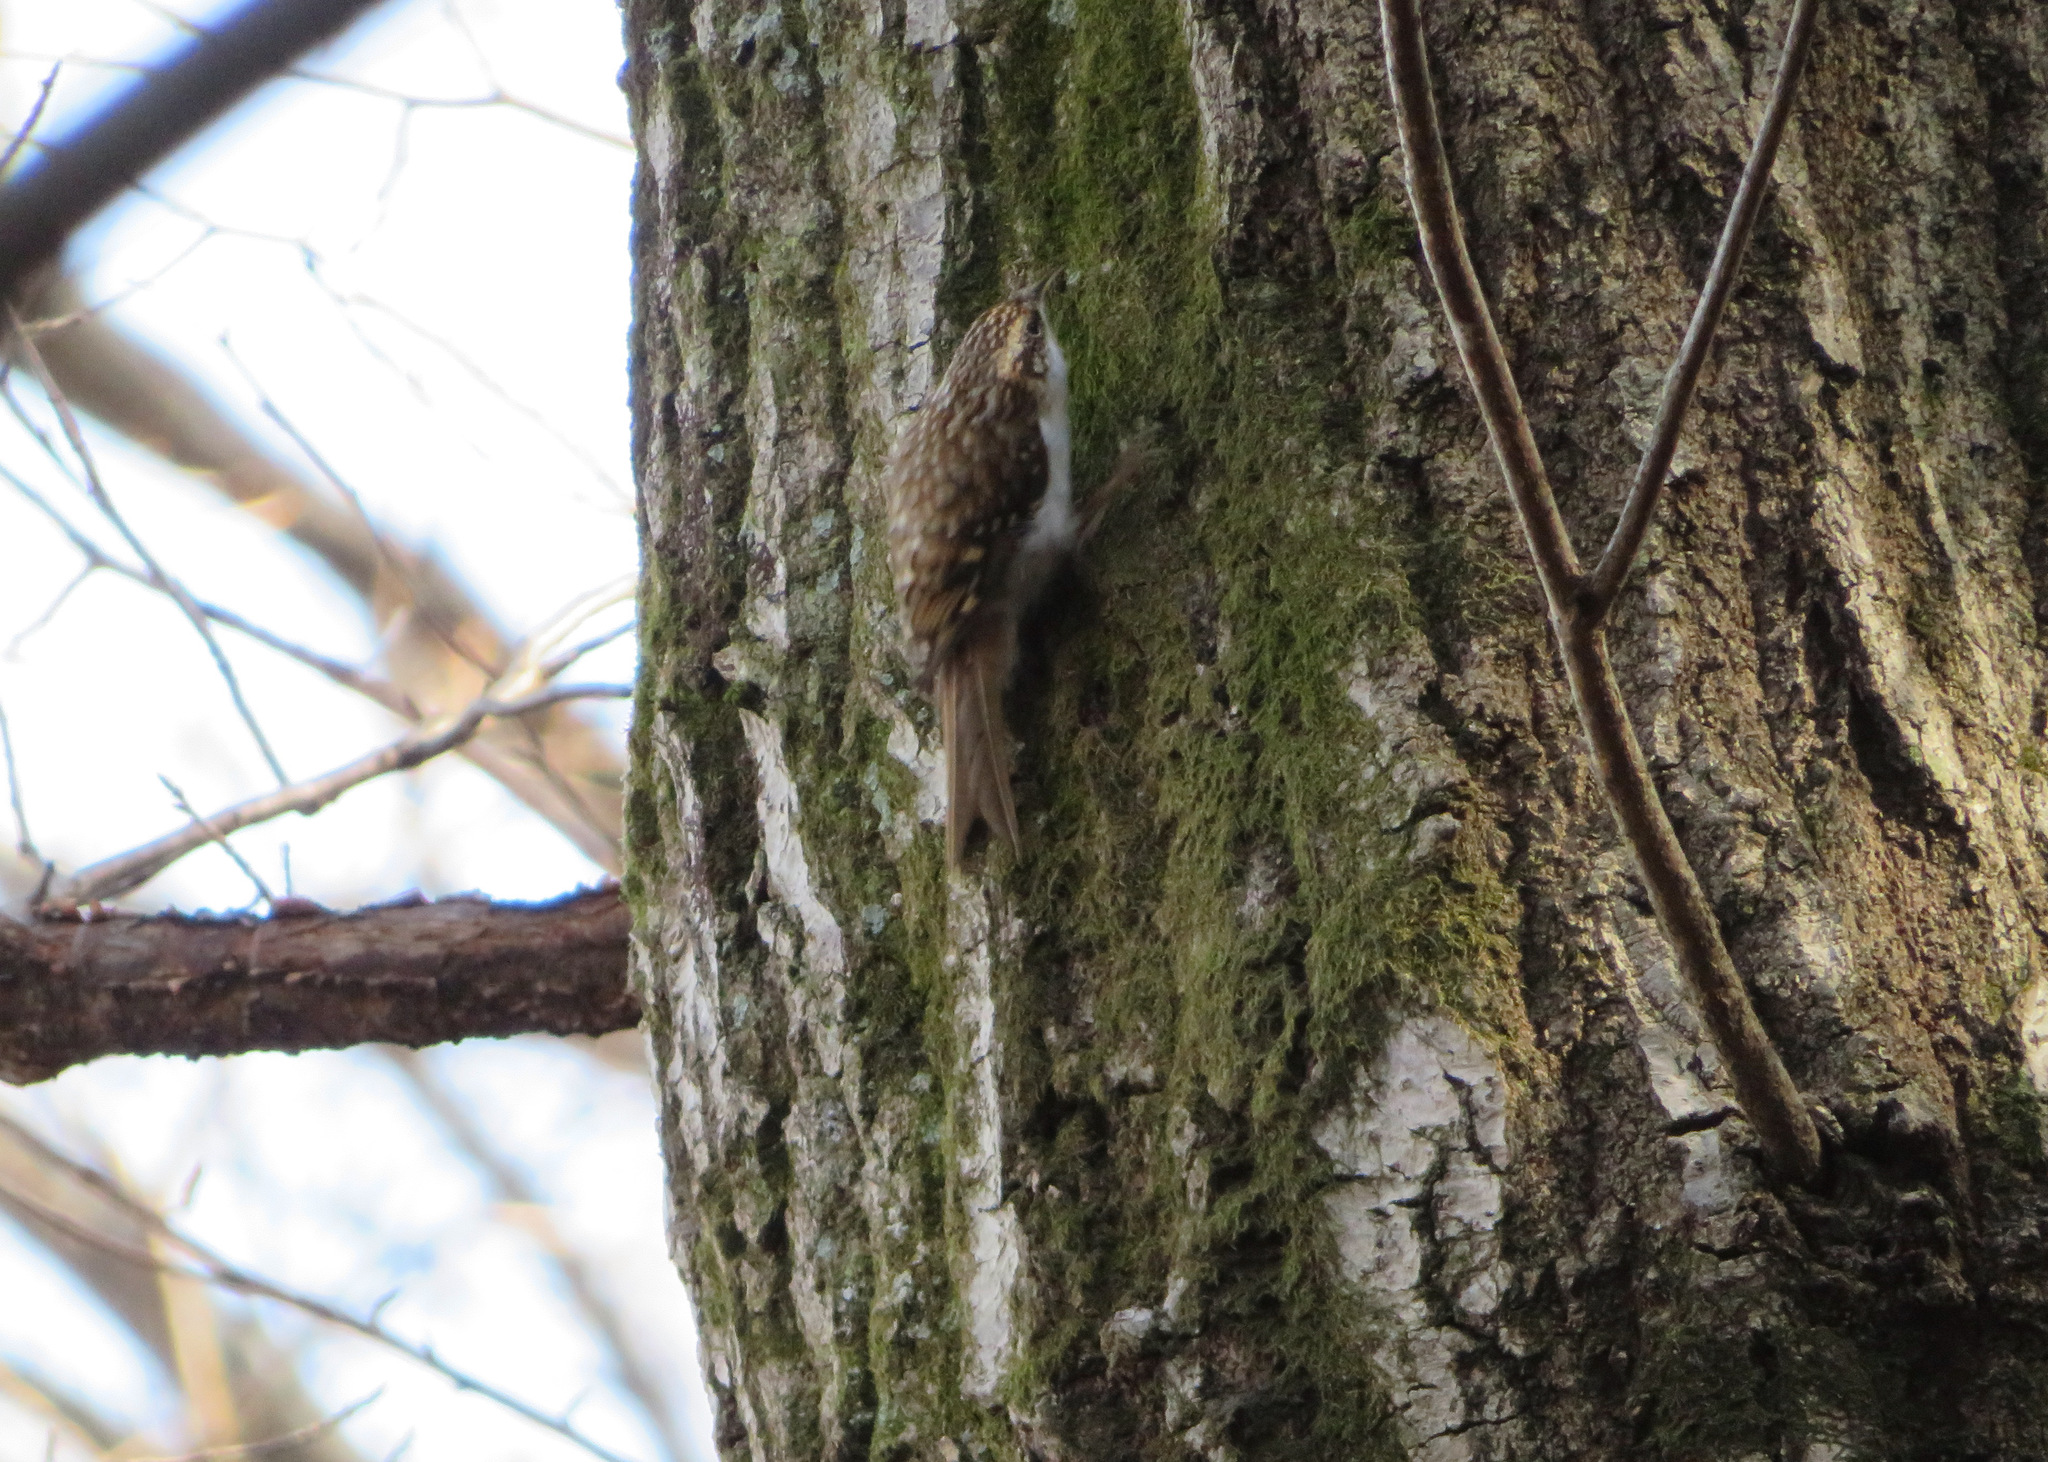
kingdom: Animalia
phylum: Chordata
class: Aves
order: Passeriformes
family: Certhiidae
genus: Certhia
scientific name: Certhia familiaris
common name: Eurasian treecreeper
